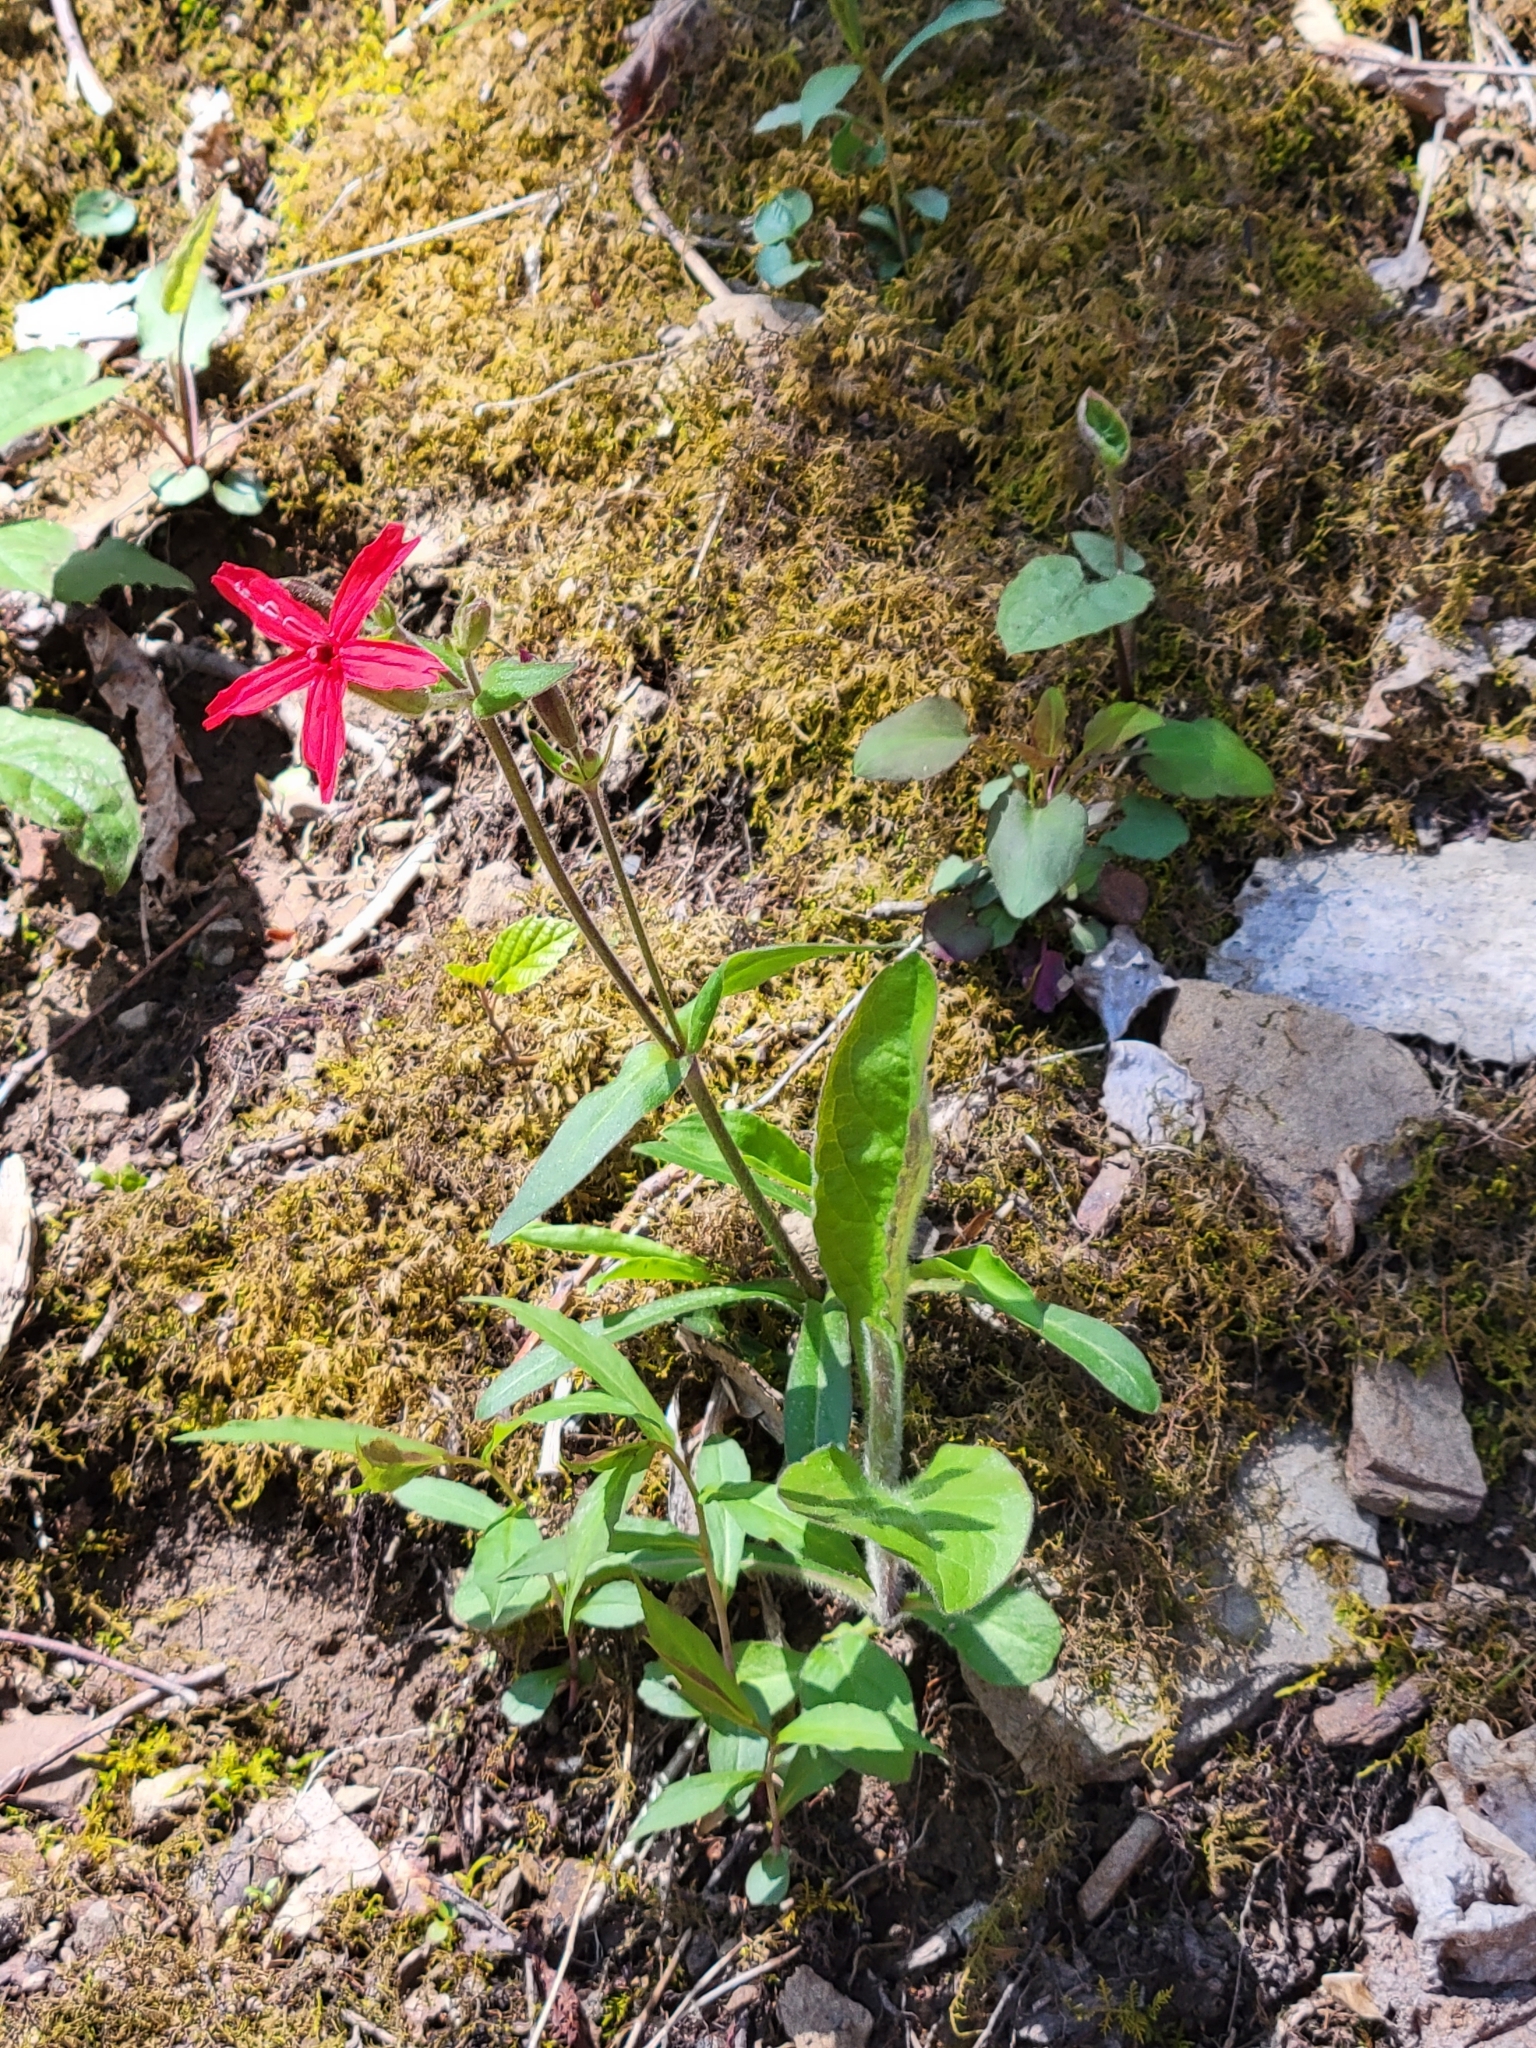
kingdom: Plantae
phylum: Tracheophyta
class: Magnoliopsida
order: Caryophyllales
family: Caryophyllaceae
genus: Silene
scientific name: Silene virginica
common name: Fire-pink
